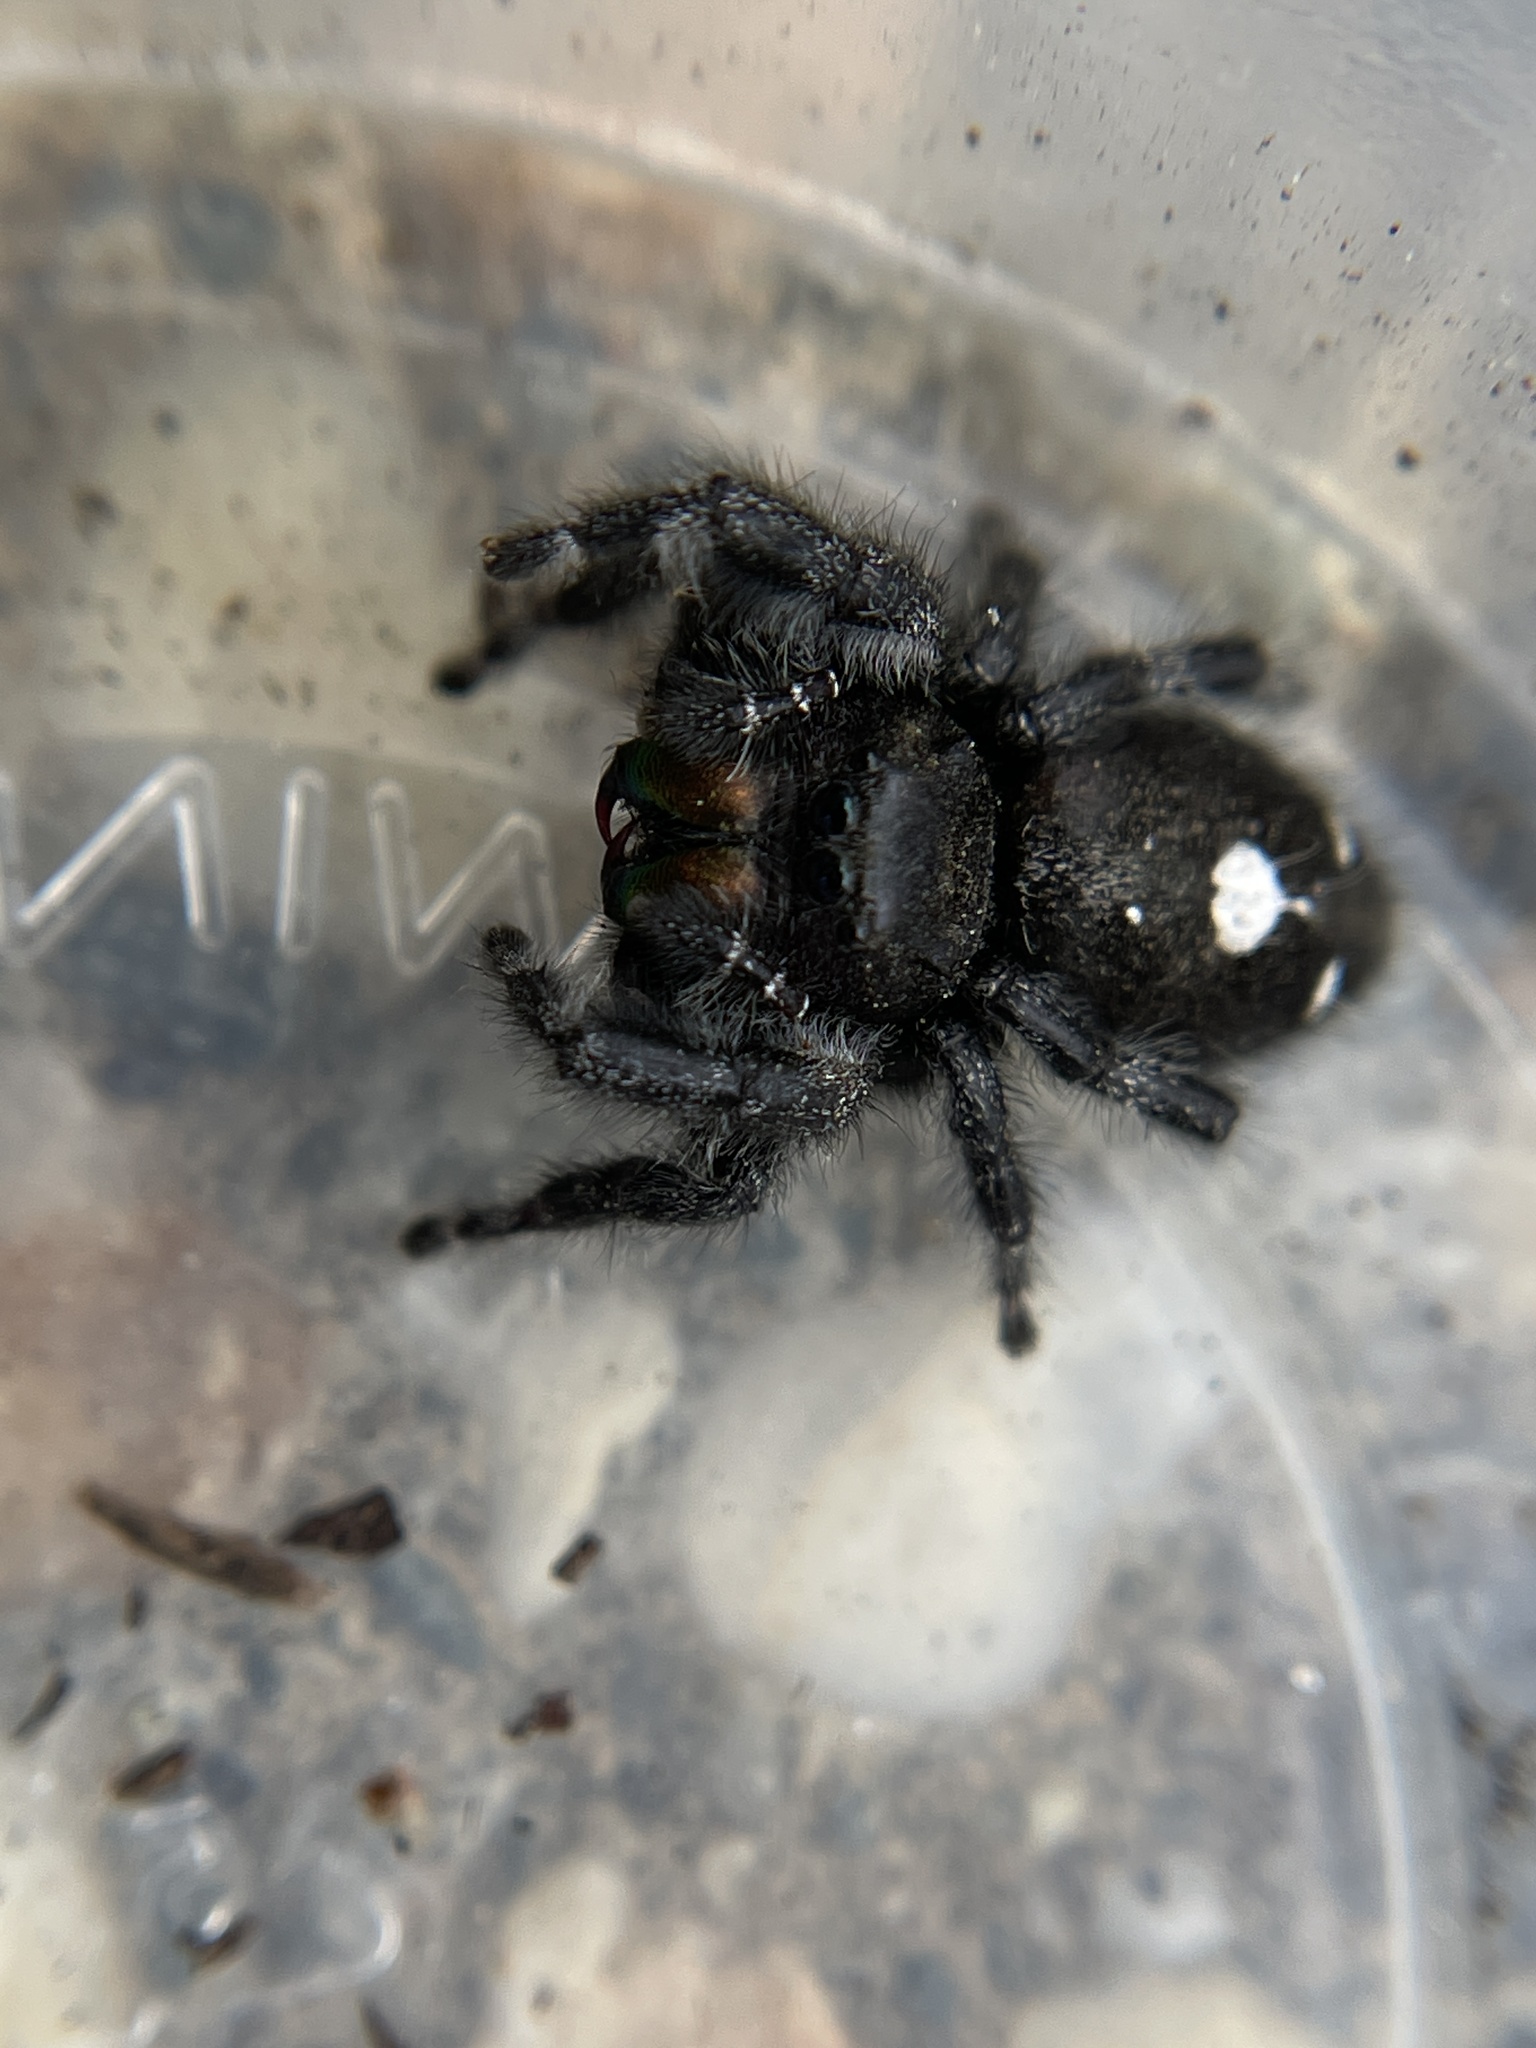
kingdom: Animalia
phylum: Arthropoda
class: Arachnida
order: Araneae
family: Salticidae
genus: Phidippus
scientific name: Phidippus audax
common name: Bold jumper
